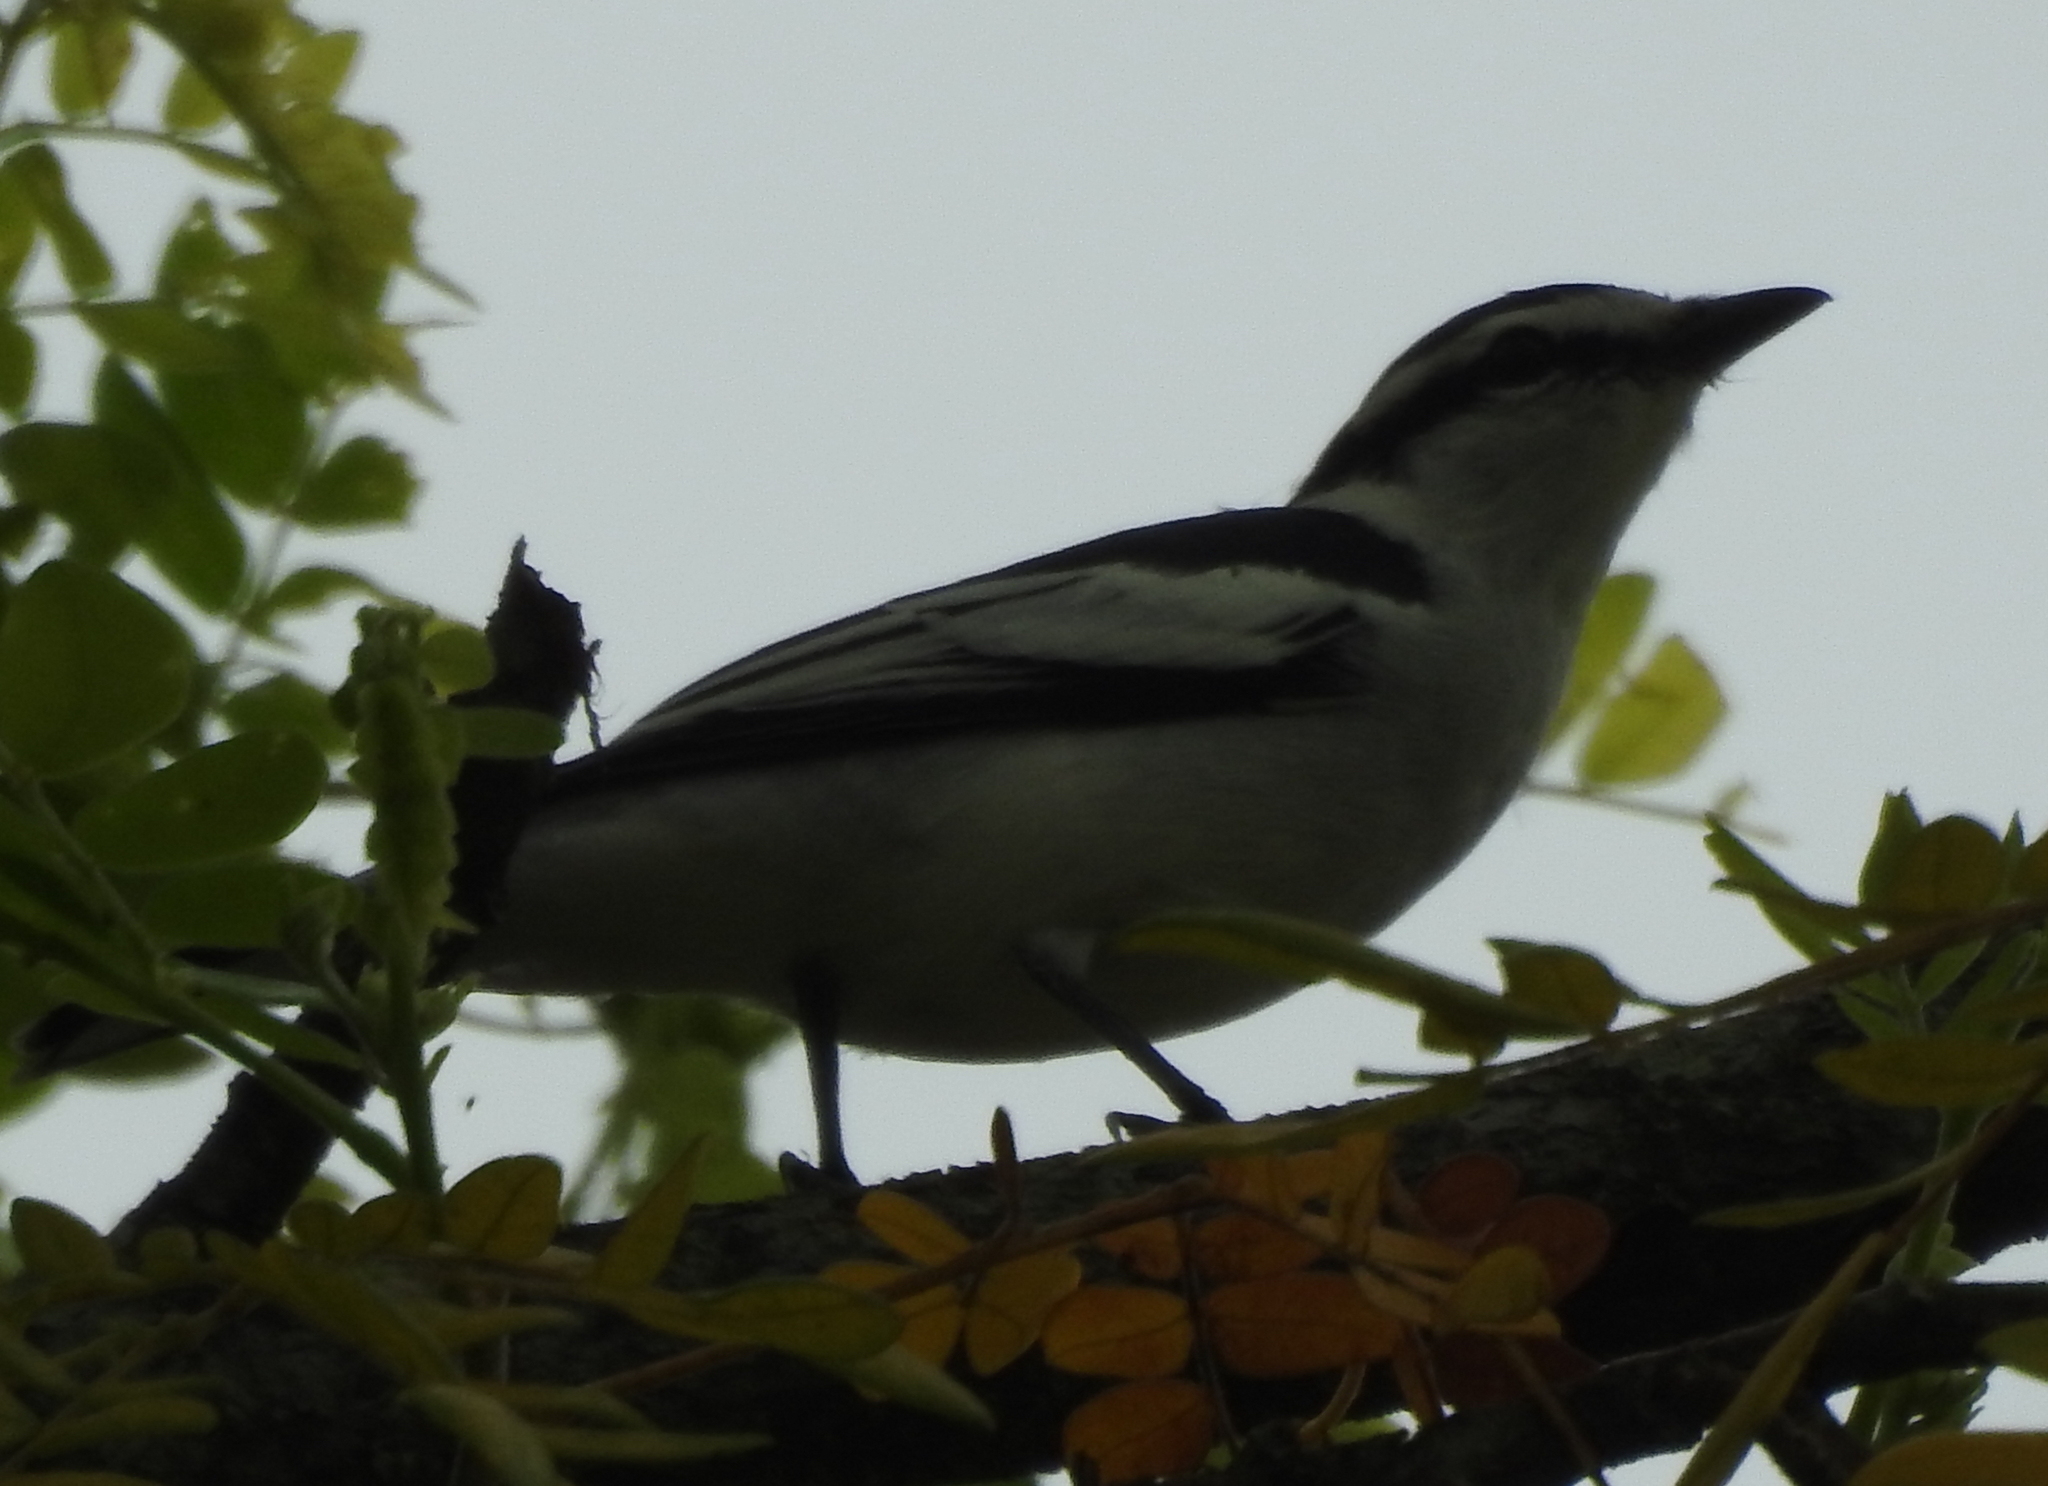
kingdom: Animalia
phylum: Chordata
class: Aves
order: Passeriformes
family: Campephagidae
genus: Lalage
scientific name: Lalage nigra
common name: Pied triller
